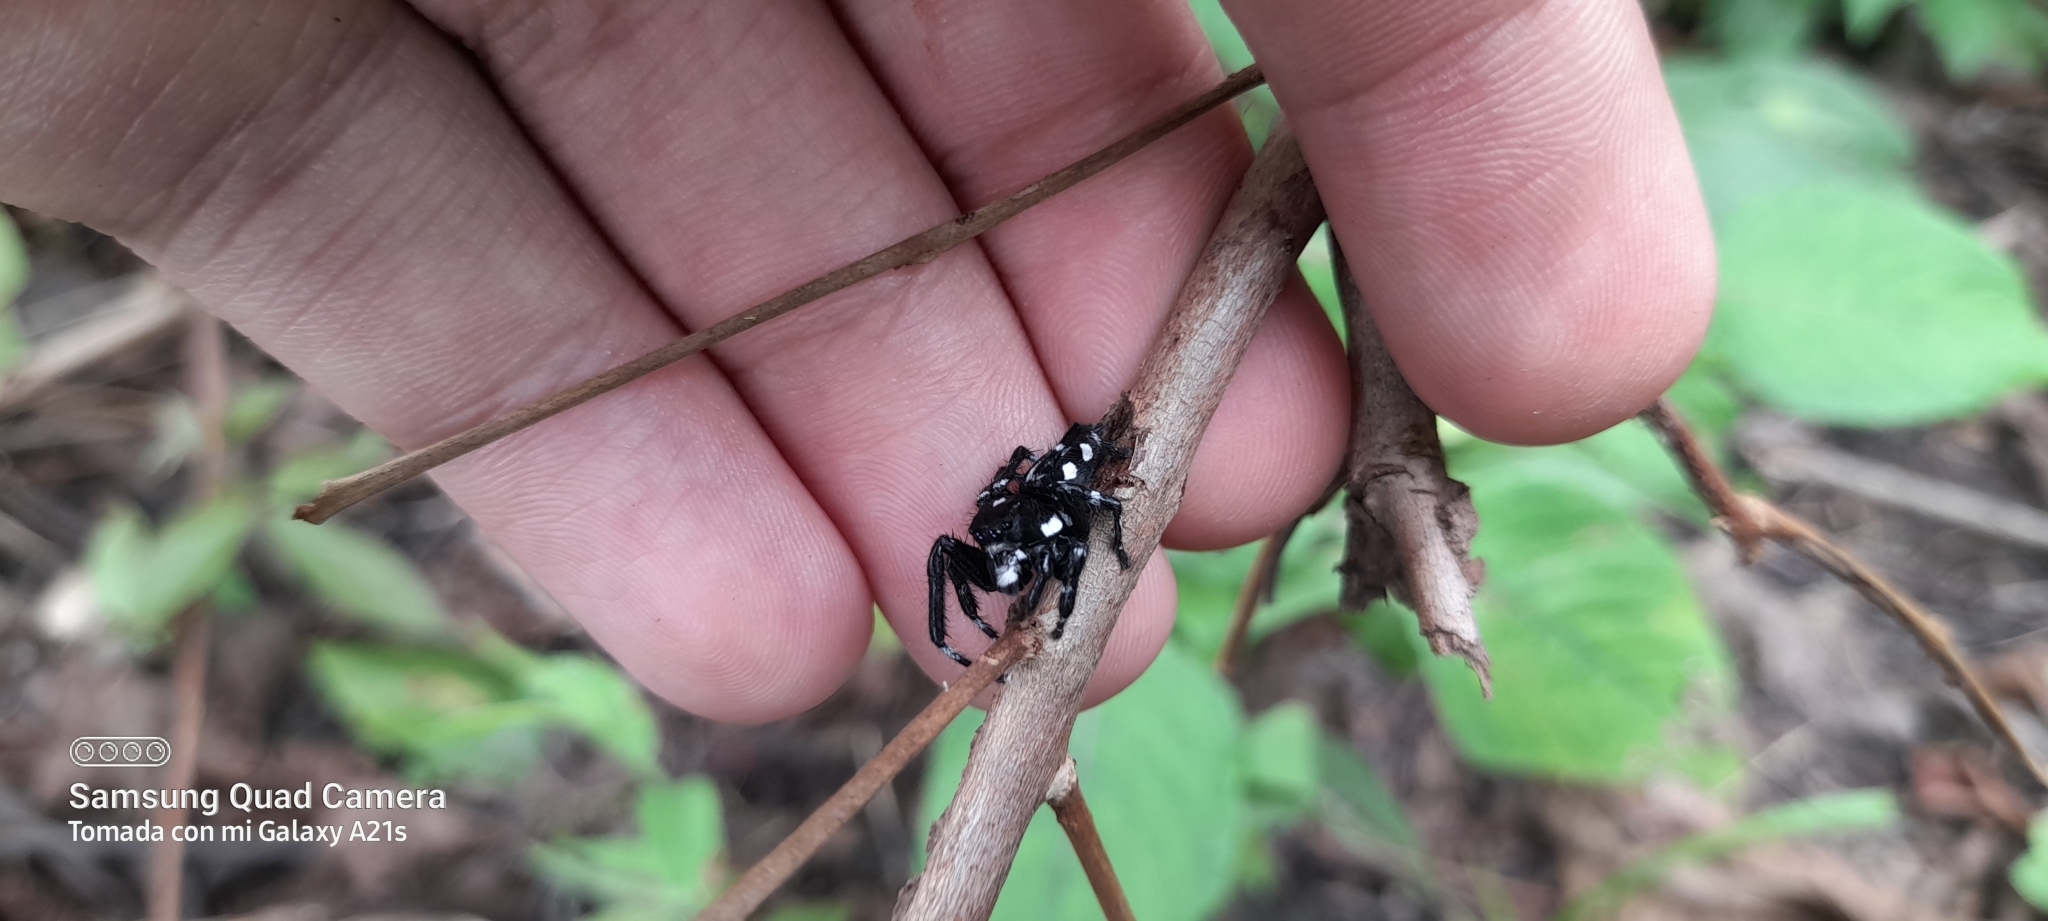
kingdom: Animalia
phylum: Arthropoda
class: Arachnida
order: Araneae
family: Salticidae
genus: Phiale
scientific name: Phiale guttata
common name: Jumping spiders
